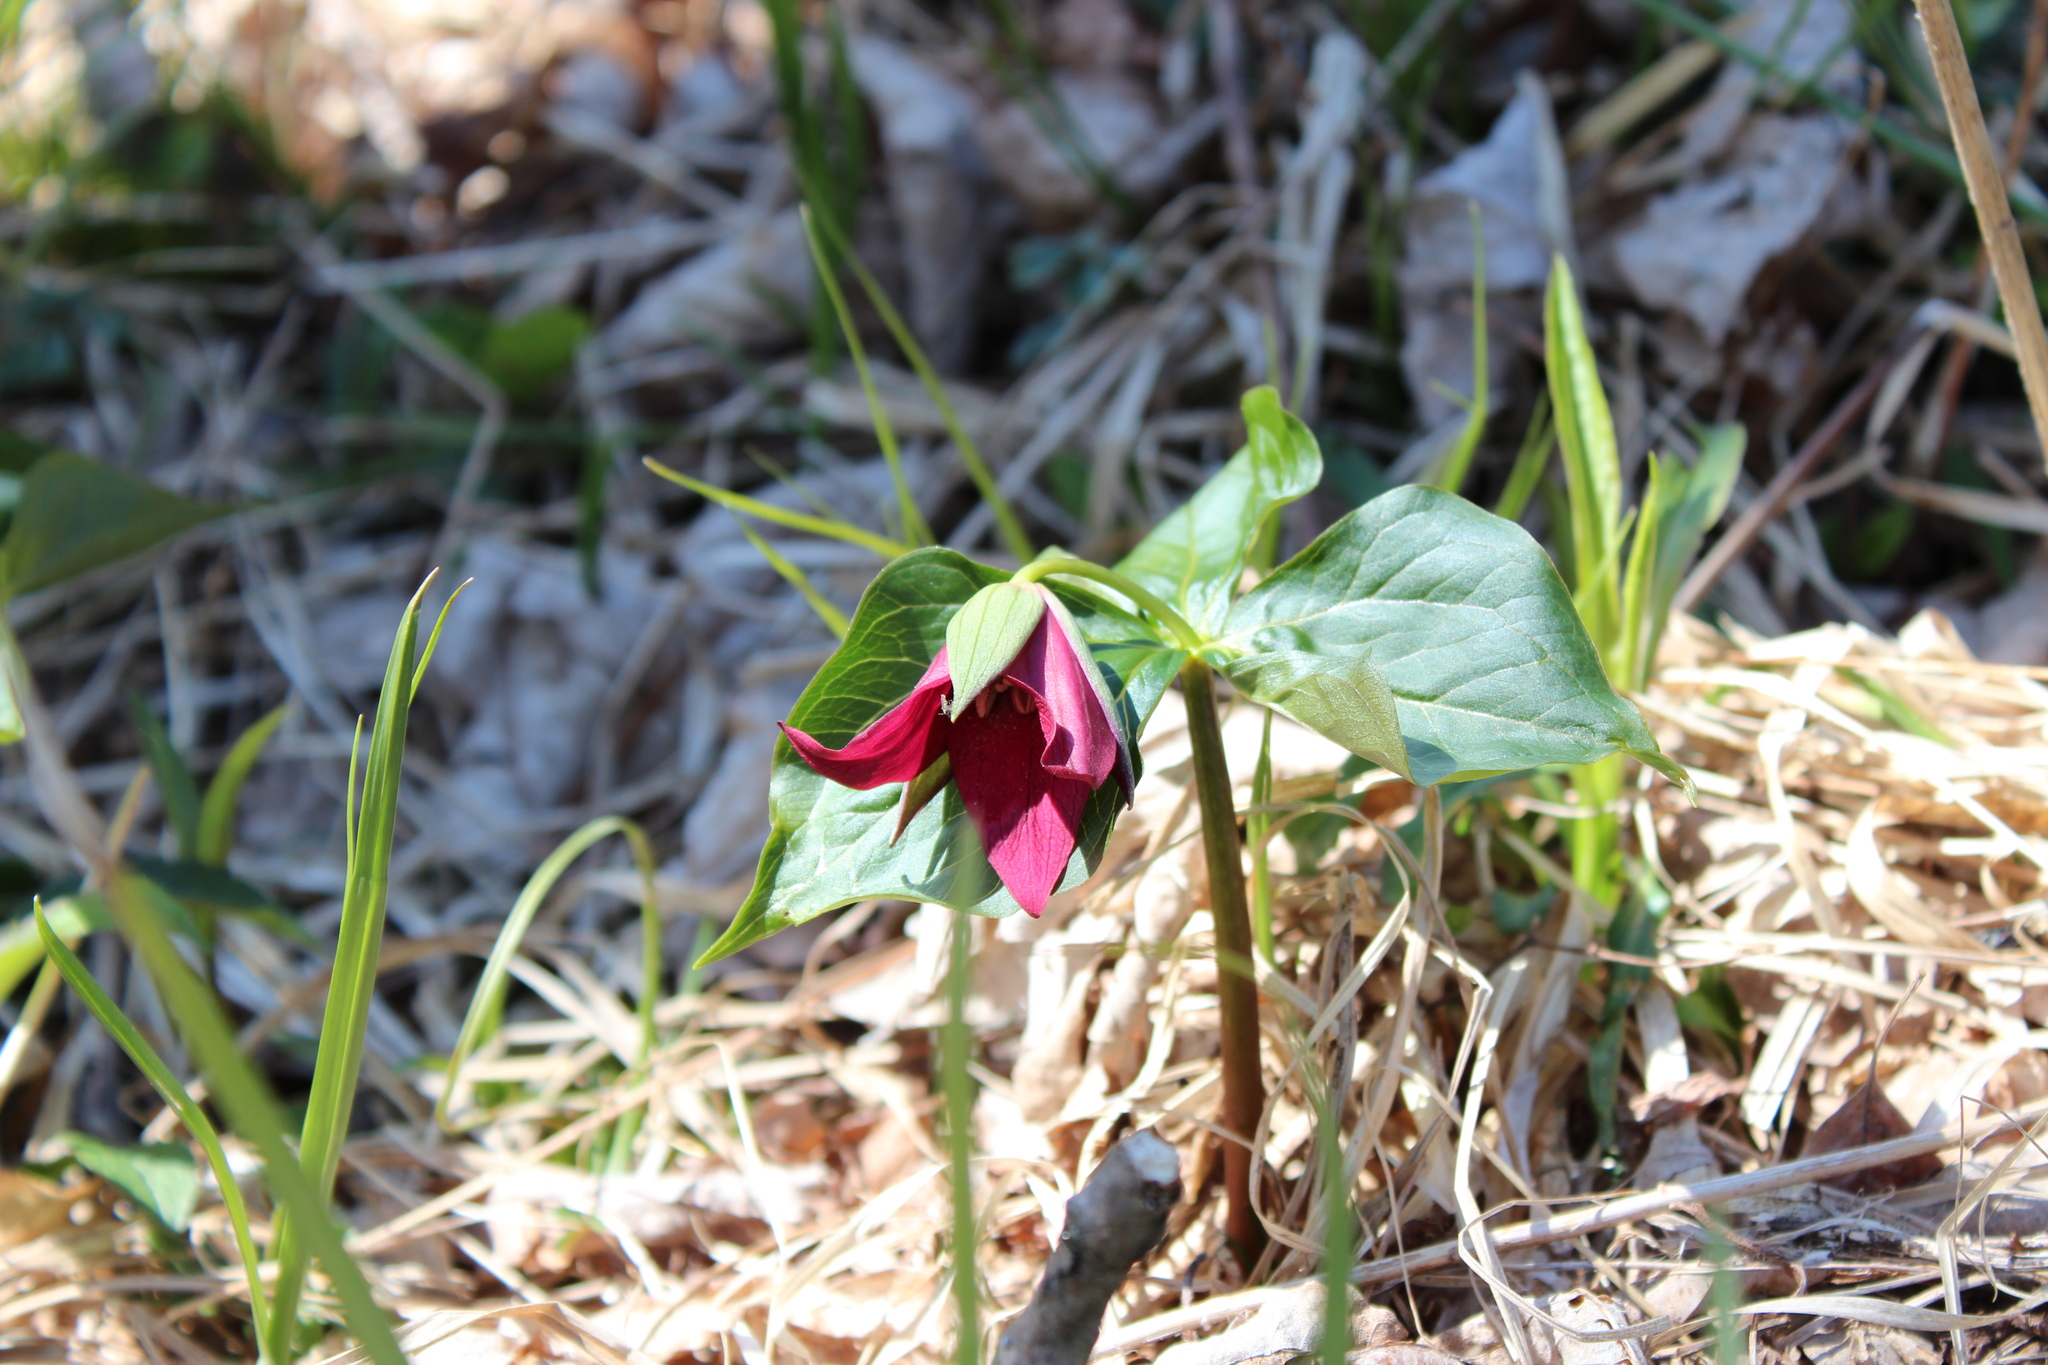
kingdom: Plantae
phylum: Tracheophyta
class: Liliopsida
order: Liliales
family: Melanthiaceae
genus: Trillium
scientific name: Trillium erectum
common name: Purple trillium
